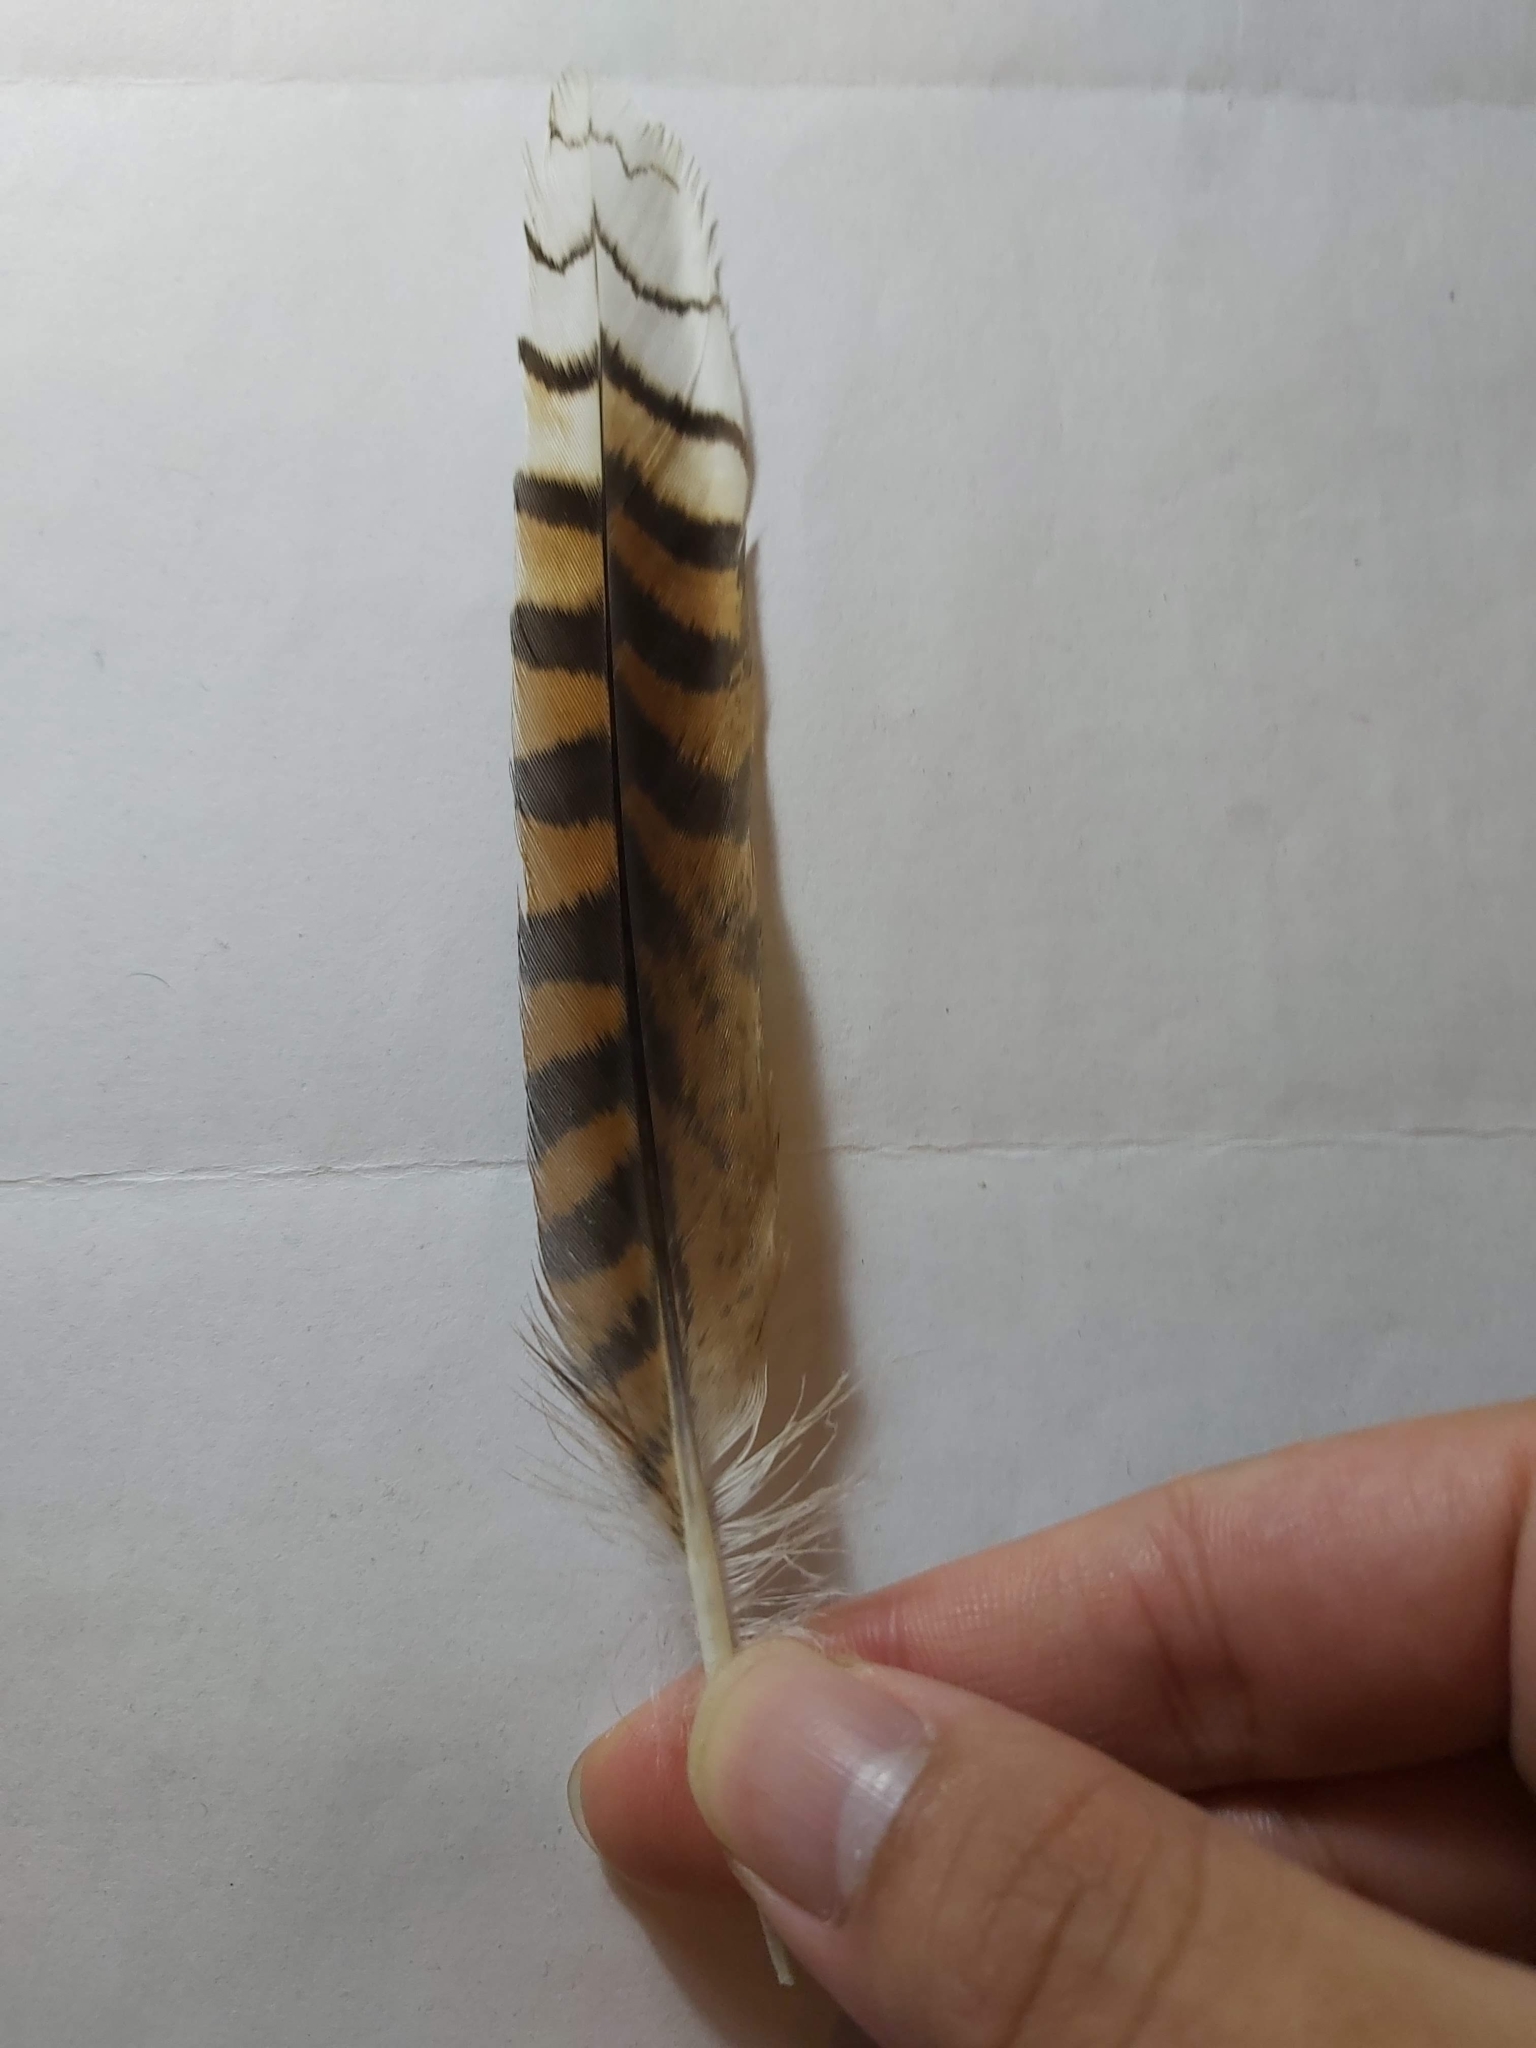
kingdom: Animalia
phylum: Chordata
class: Aves
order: Coraciiformes
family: Alcedinidae
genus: Dacelo
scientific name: Dacelo novaeguineae
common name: Laughing kookaburra
